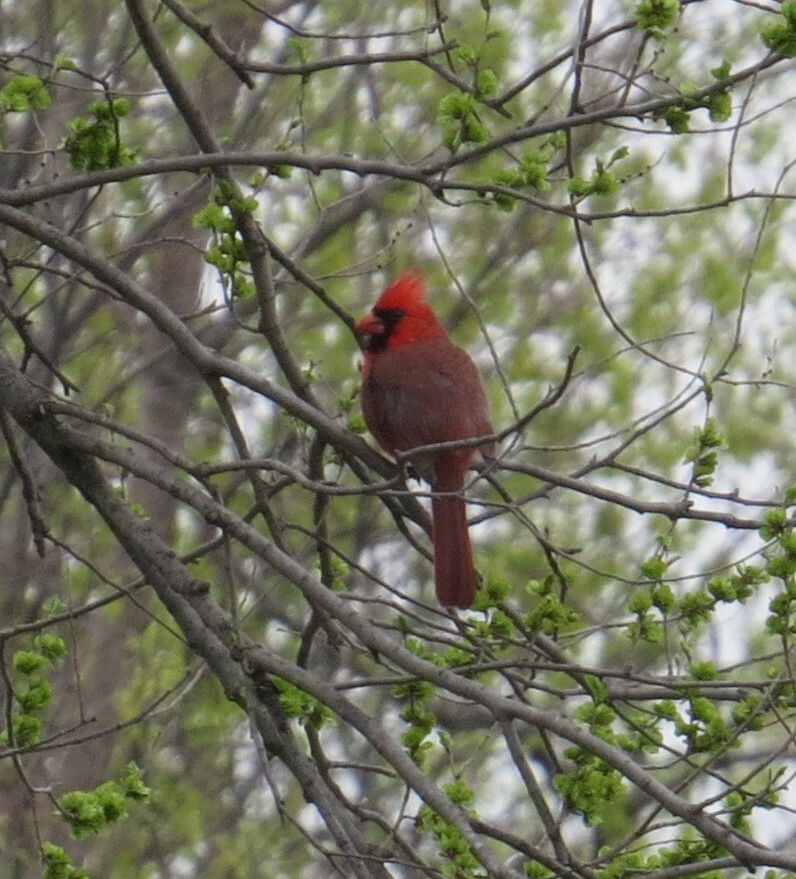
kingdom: Animalia
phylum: Chordata
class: Aves
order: Passeriformes
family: Cardinalidae
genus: Cardinalis
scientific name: Cardinalis cardinalis
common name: Northern cardinal
